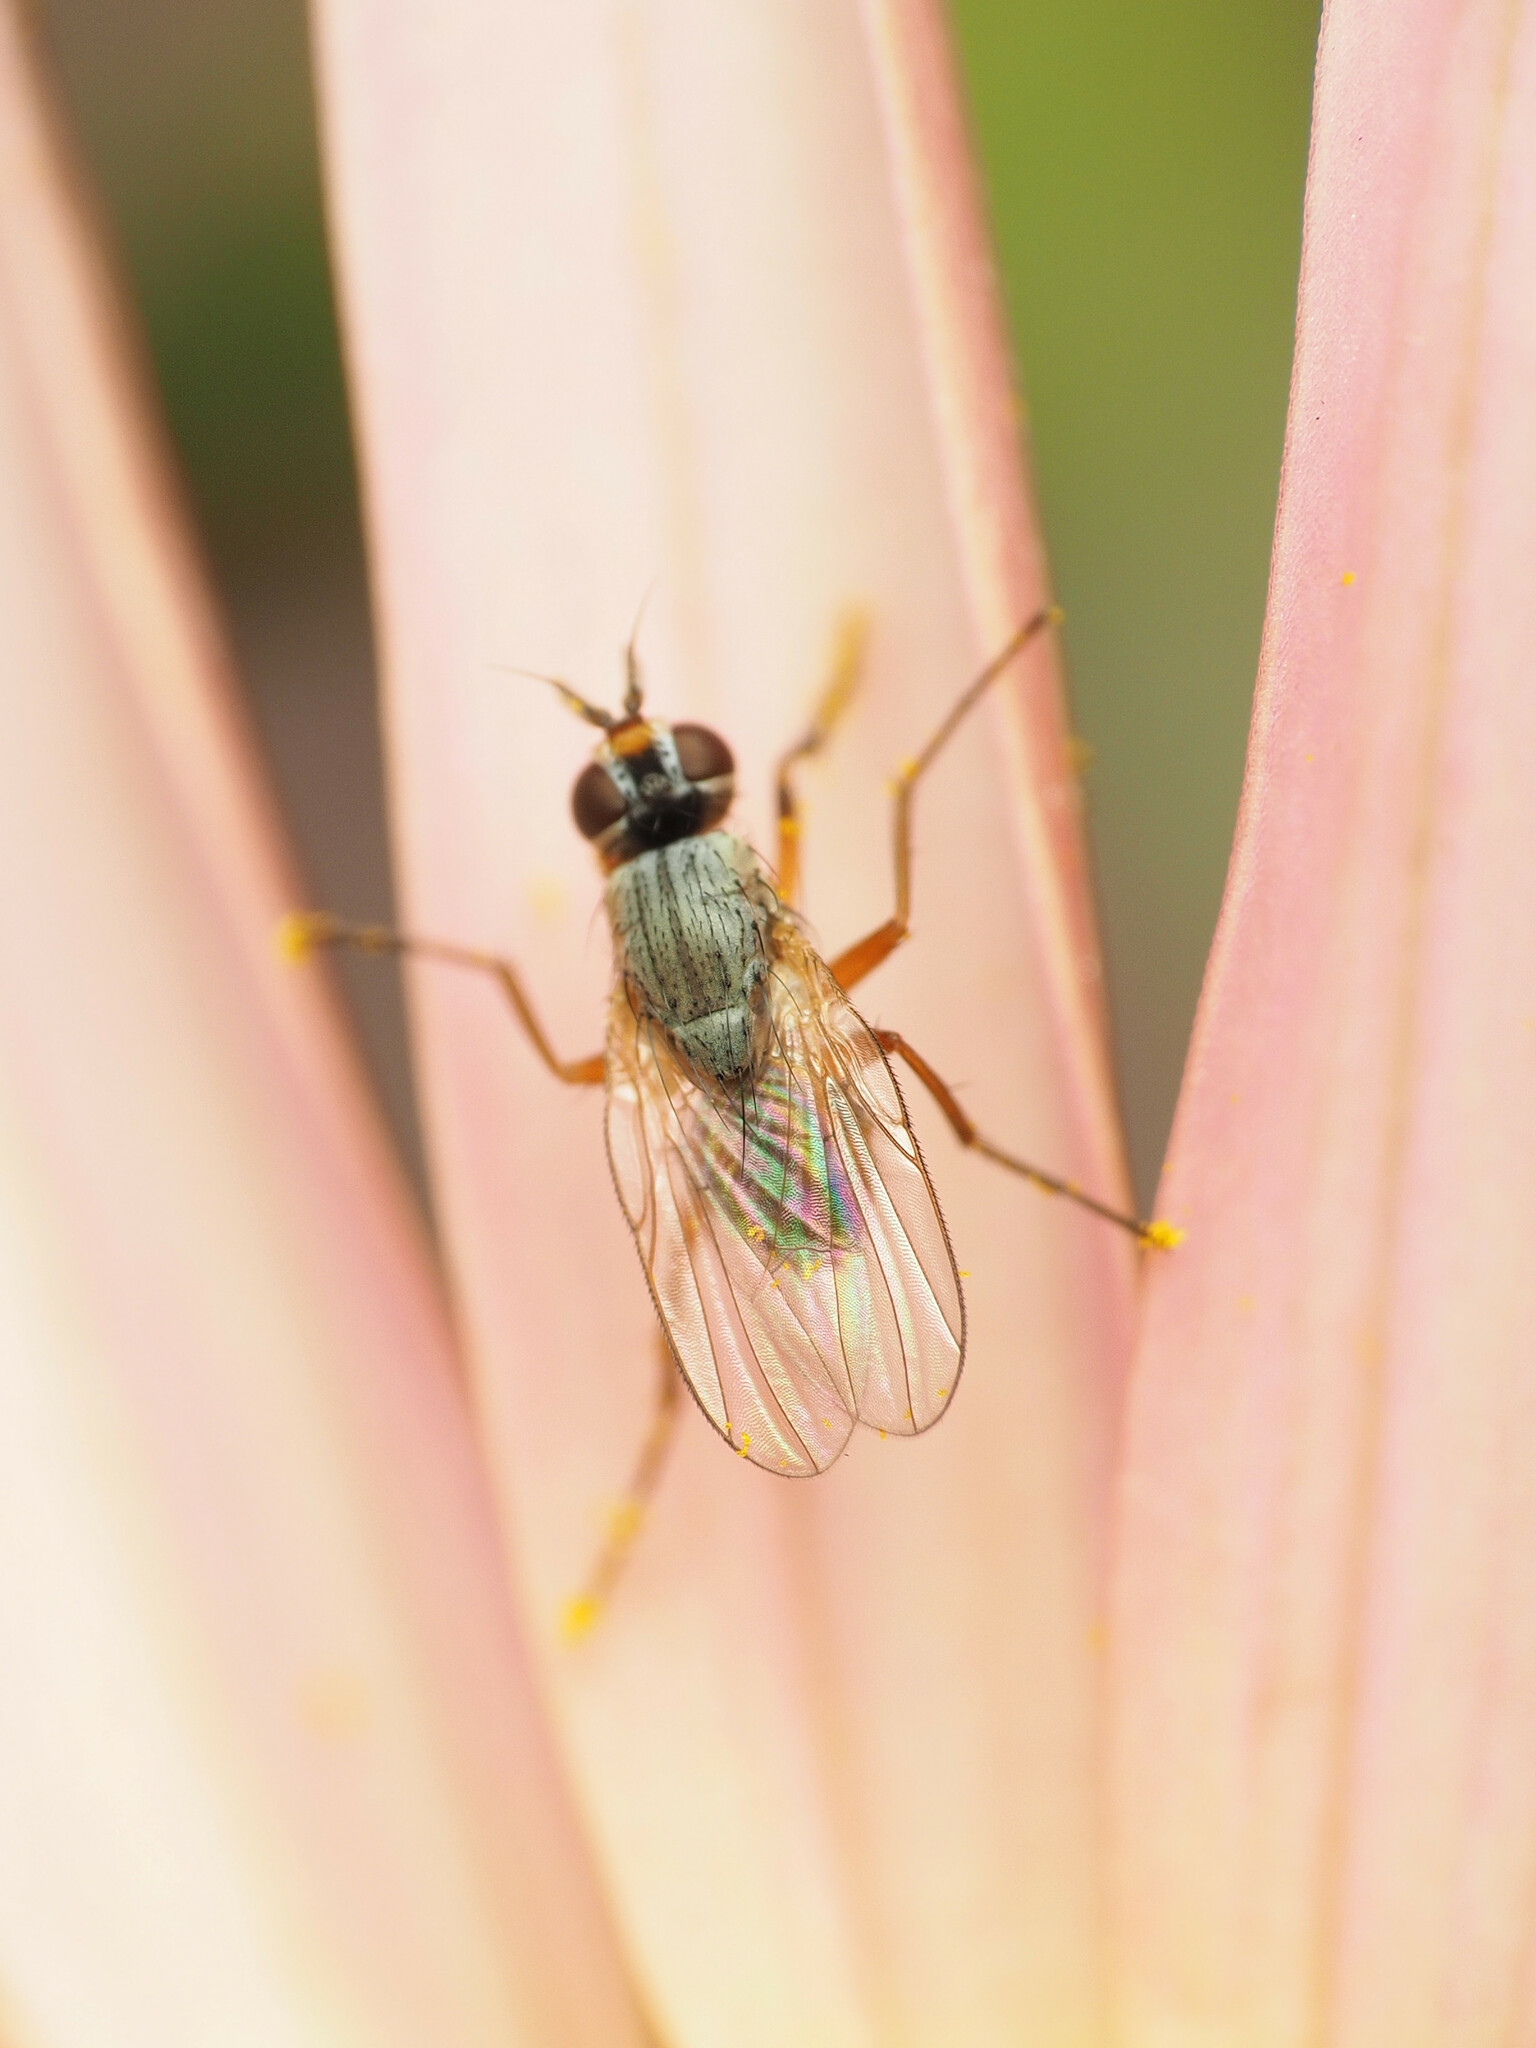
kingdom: Animalia
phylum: Arthropoda
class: Insecta
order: Diptera
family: Muscidae
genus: Atherigona
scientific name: Atherigona reversura
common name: Bermudagrass stem maggot
